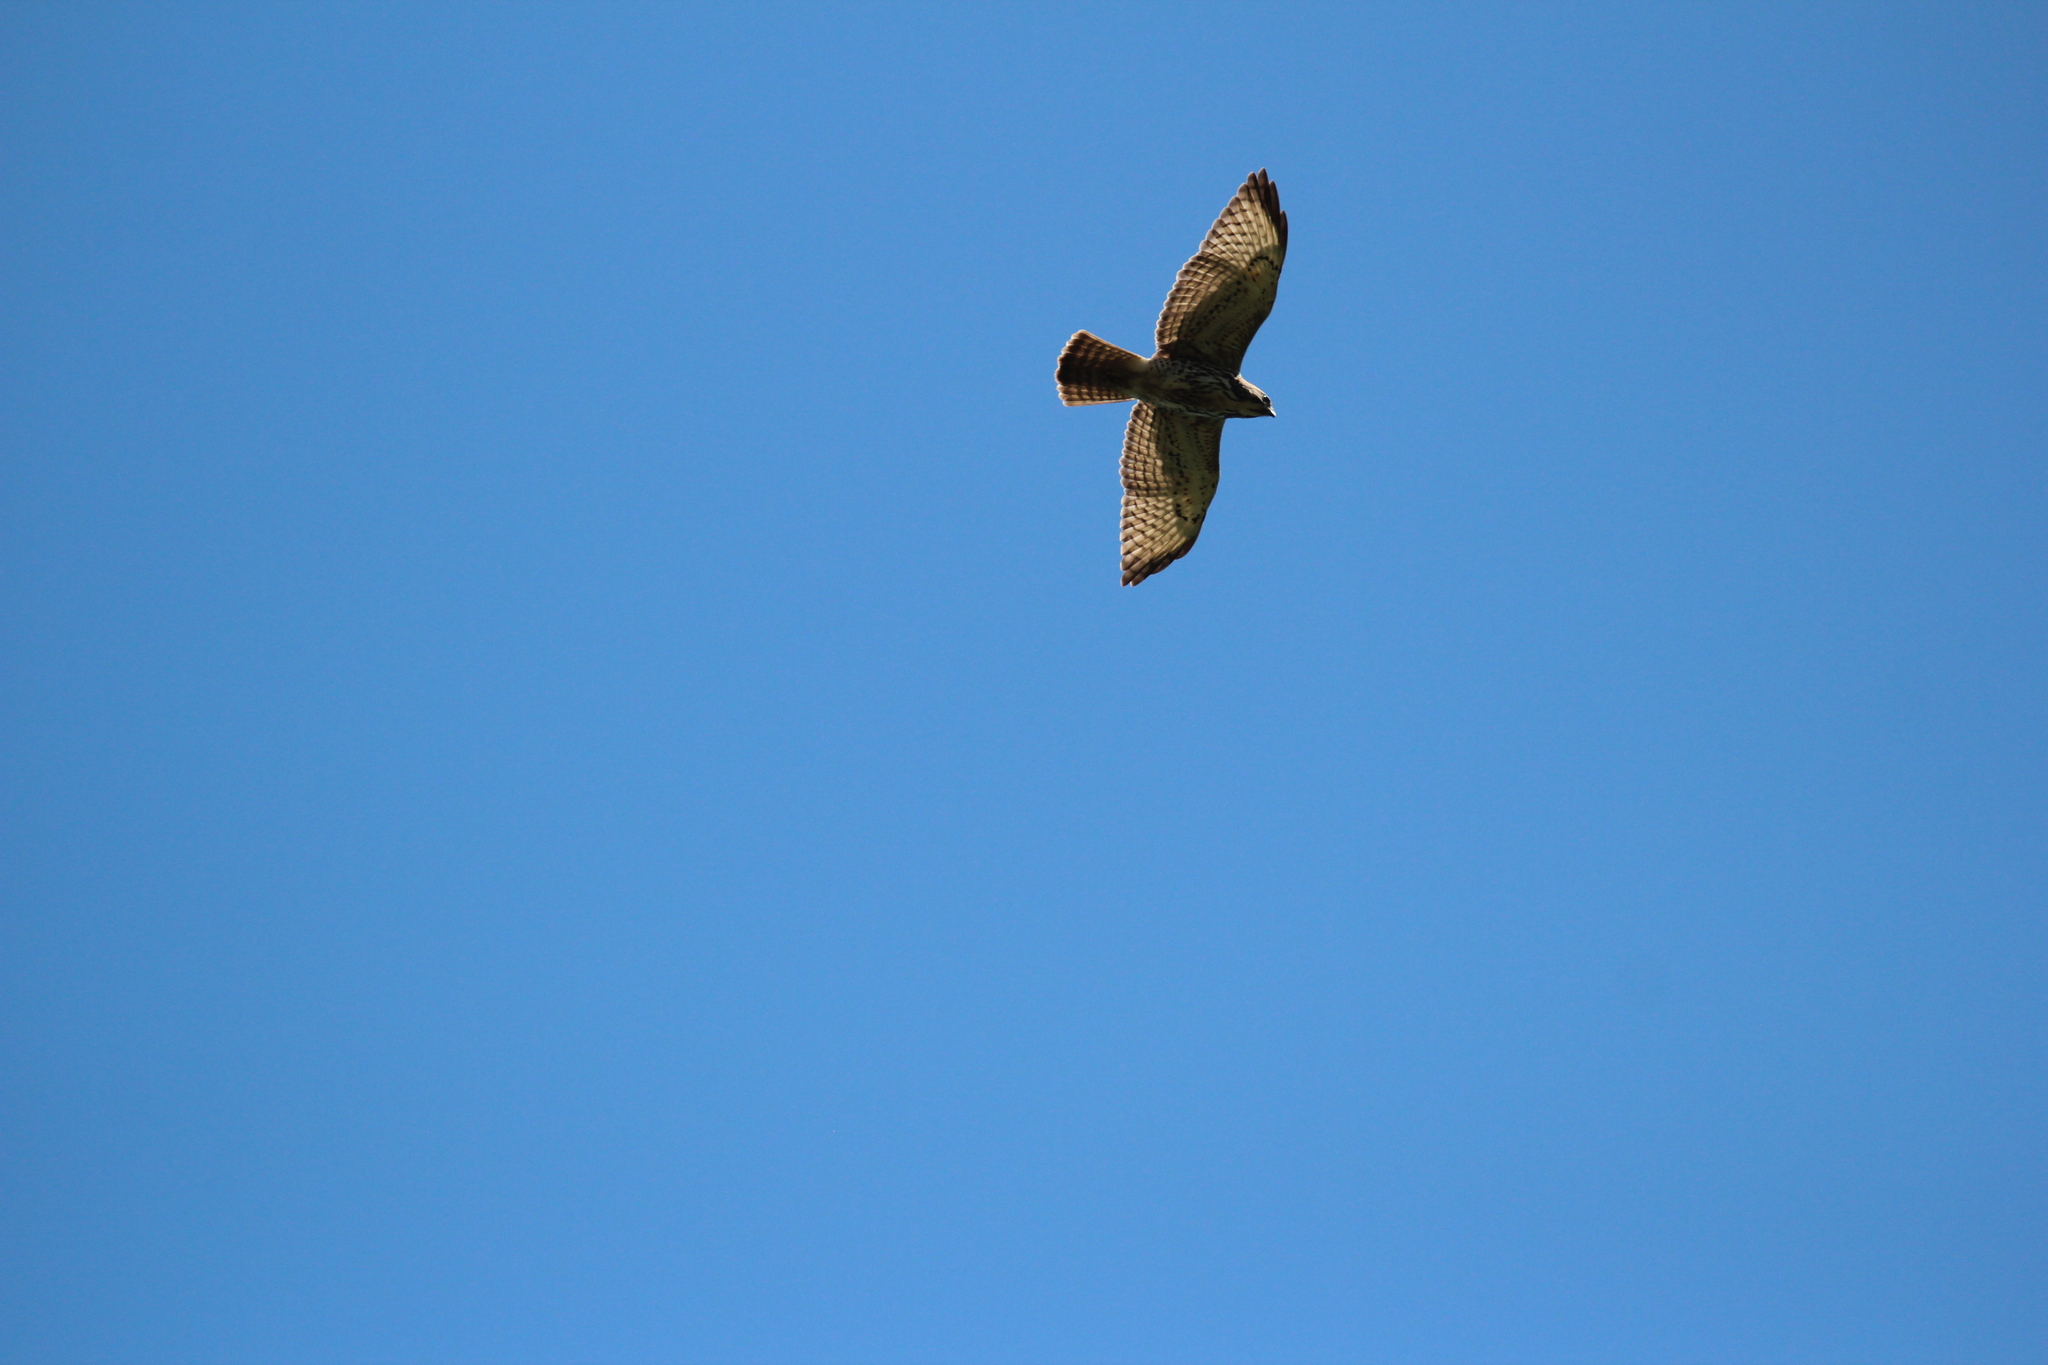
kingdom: Animalia
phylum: Chordata
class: Aves
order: Accipitriformes
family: Accipitridae
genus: Buteo
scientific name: Buteo platypterus
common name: Broad-winged hawk
